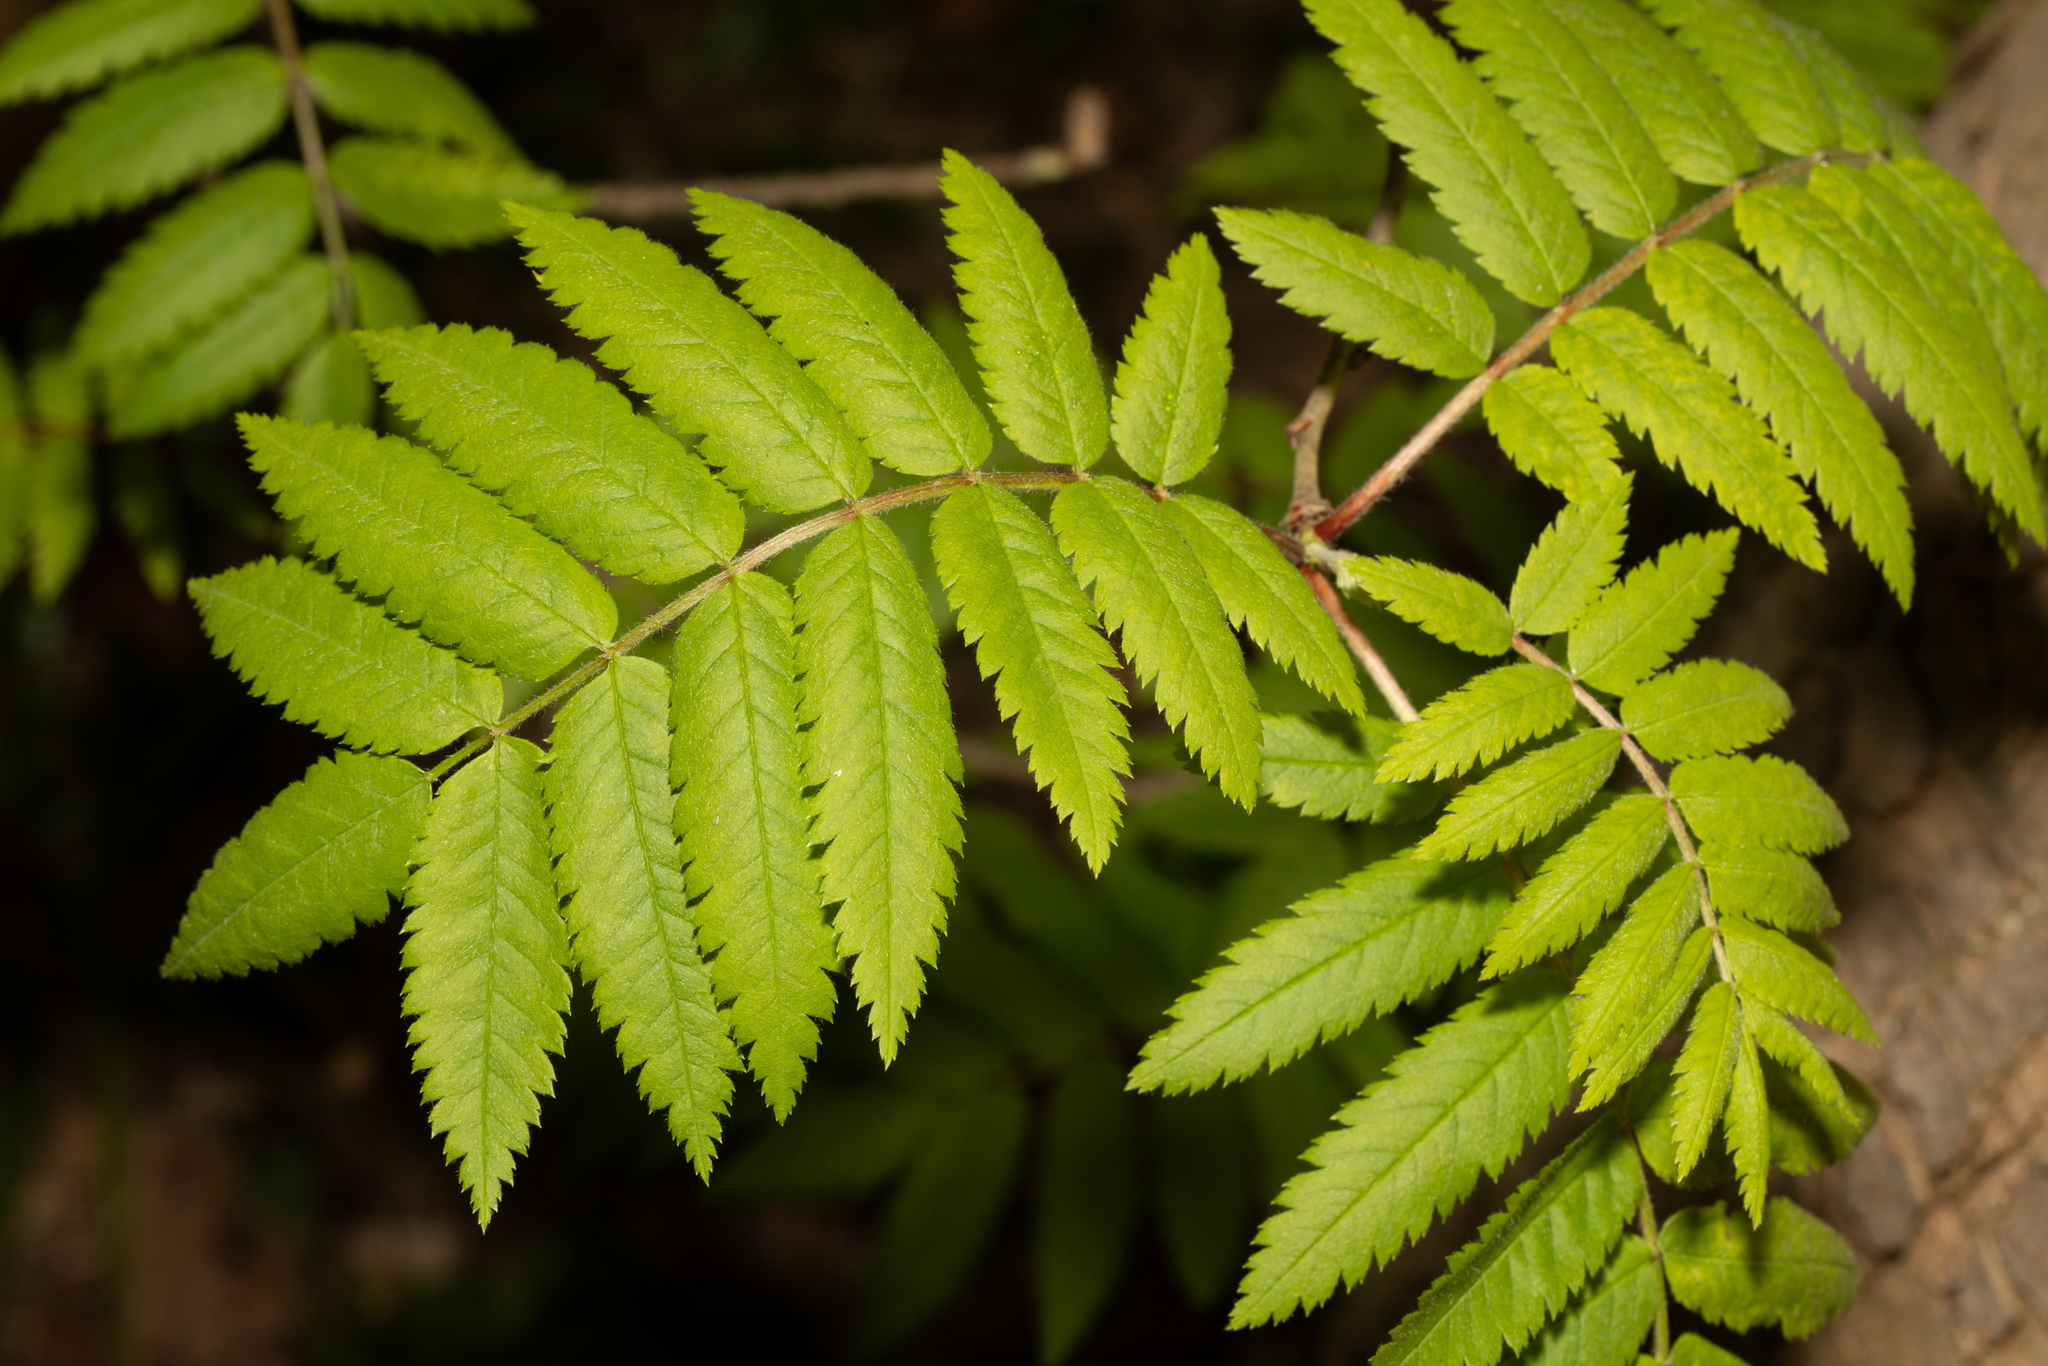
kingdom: Plantae
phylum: Tracheophyta
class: Magnoliopsida
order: Rosales
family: Rosaceae
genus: Sorbus
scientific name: Sorbus aucuparia
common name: Rowan
